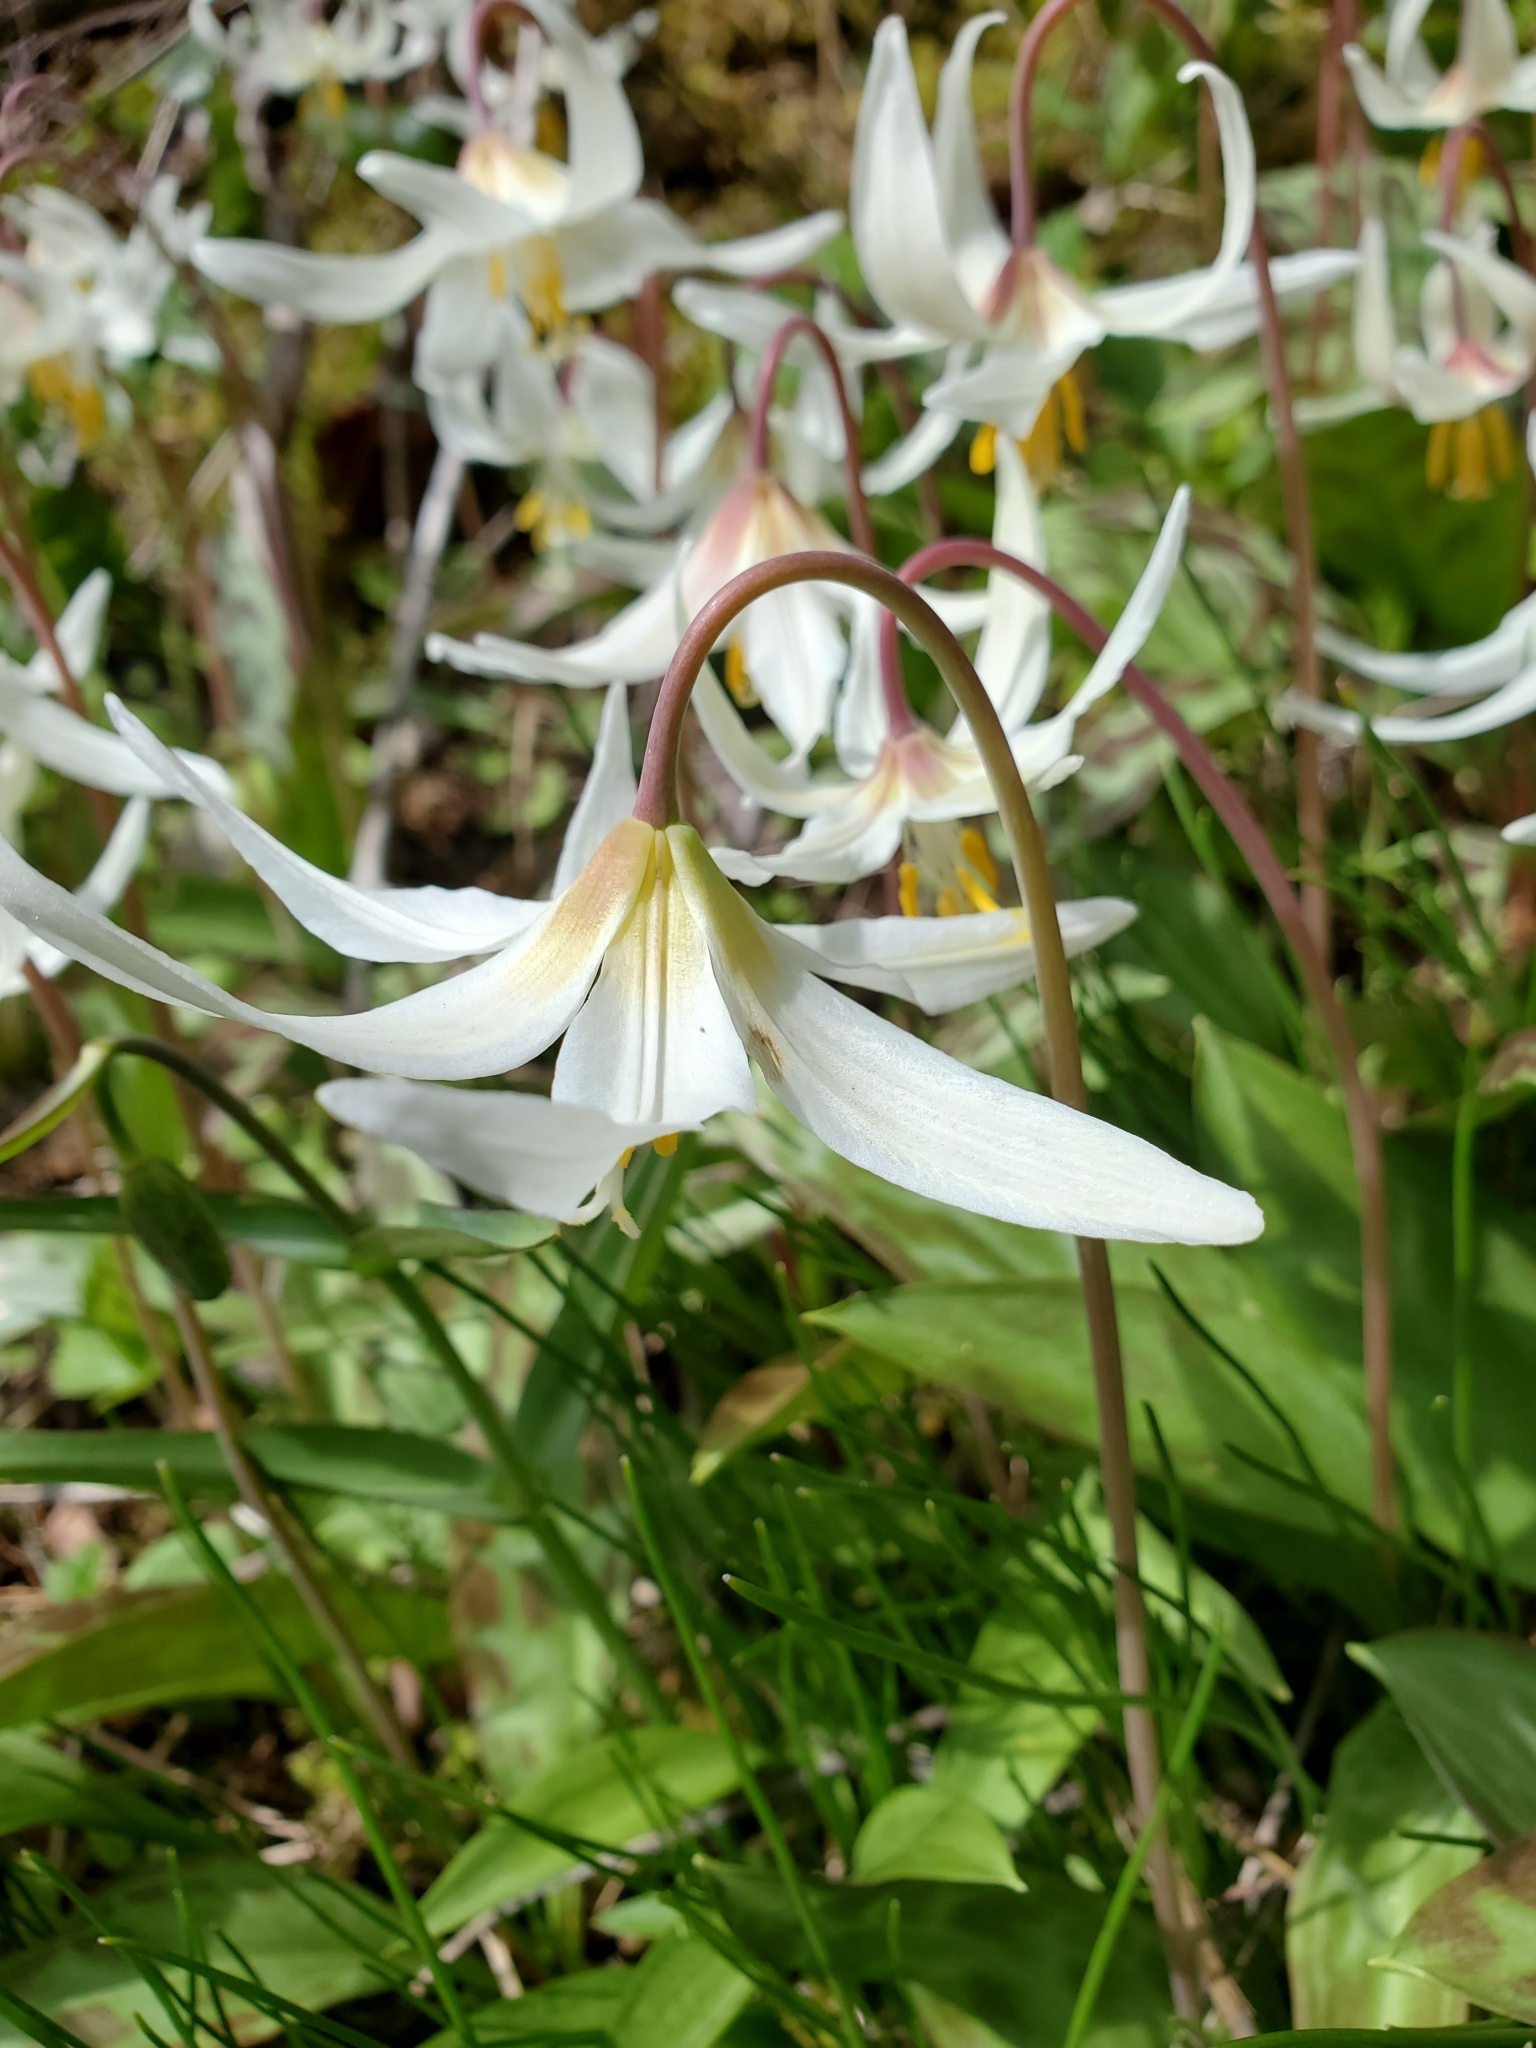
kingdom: Plantae
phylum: Tracheophyta
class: Liliopsida
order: Liliales
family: Liliaceae
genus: Erythronium
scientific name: Erythronium oregonum
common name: Giant adder's-tongue
